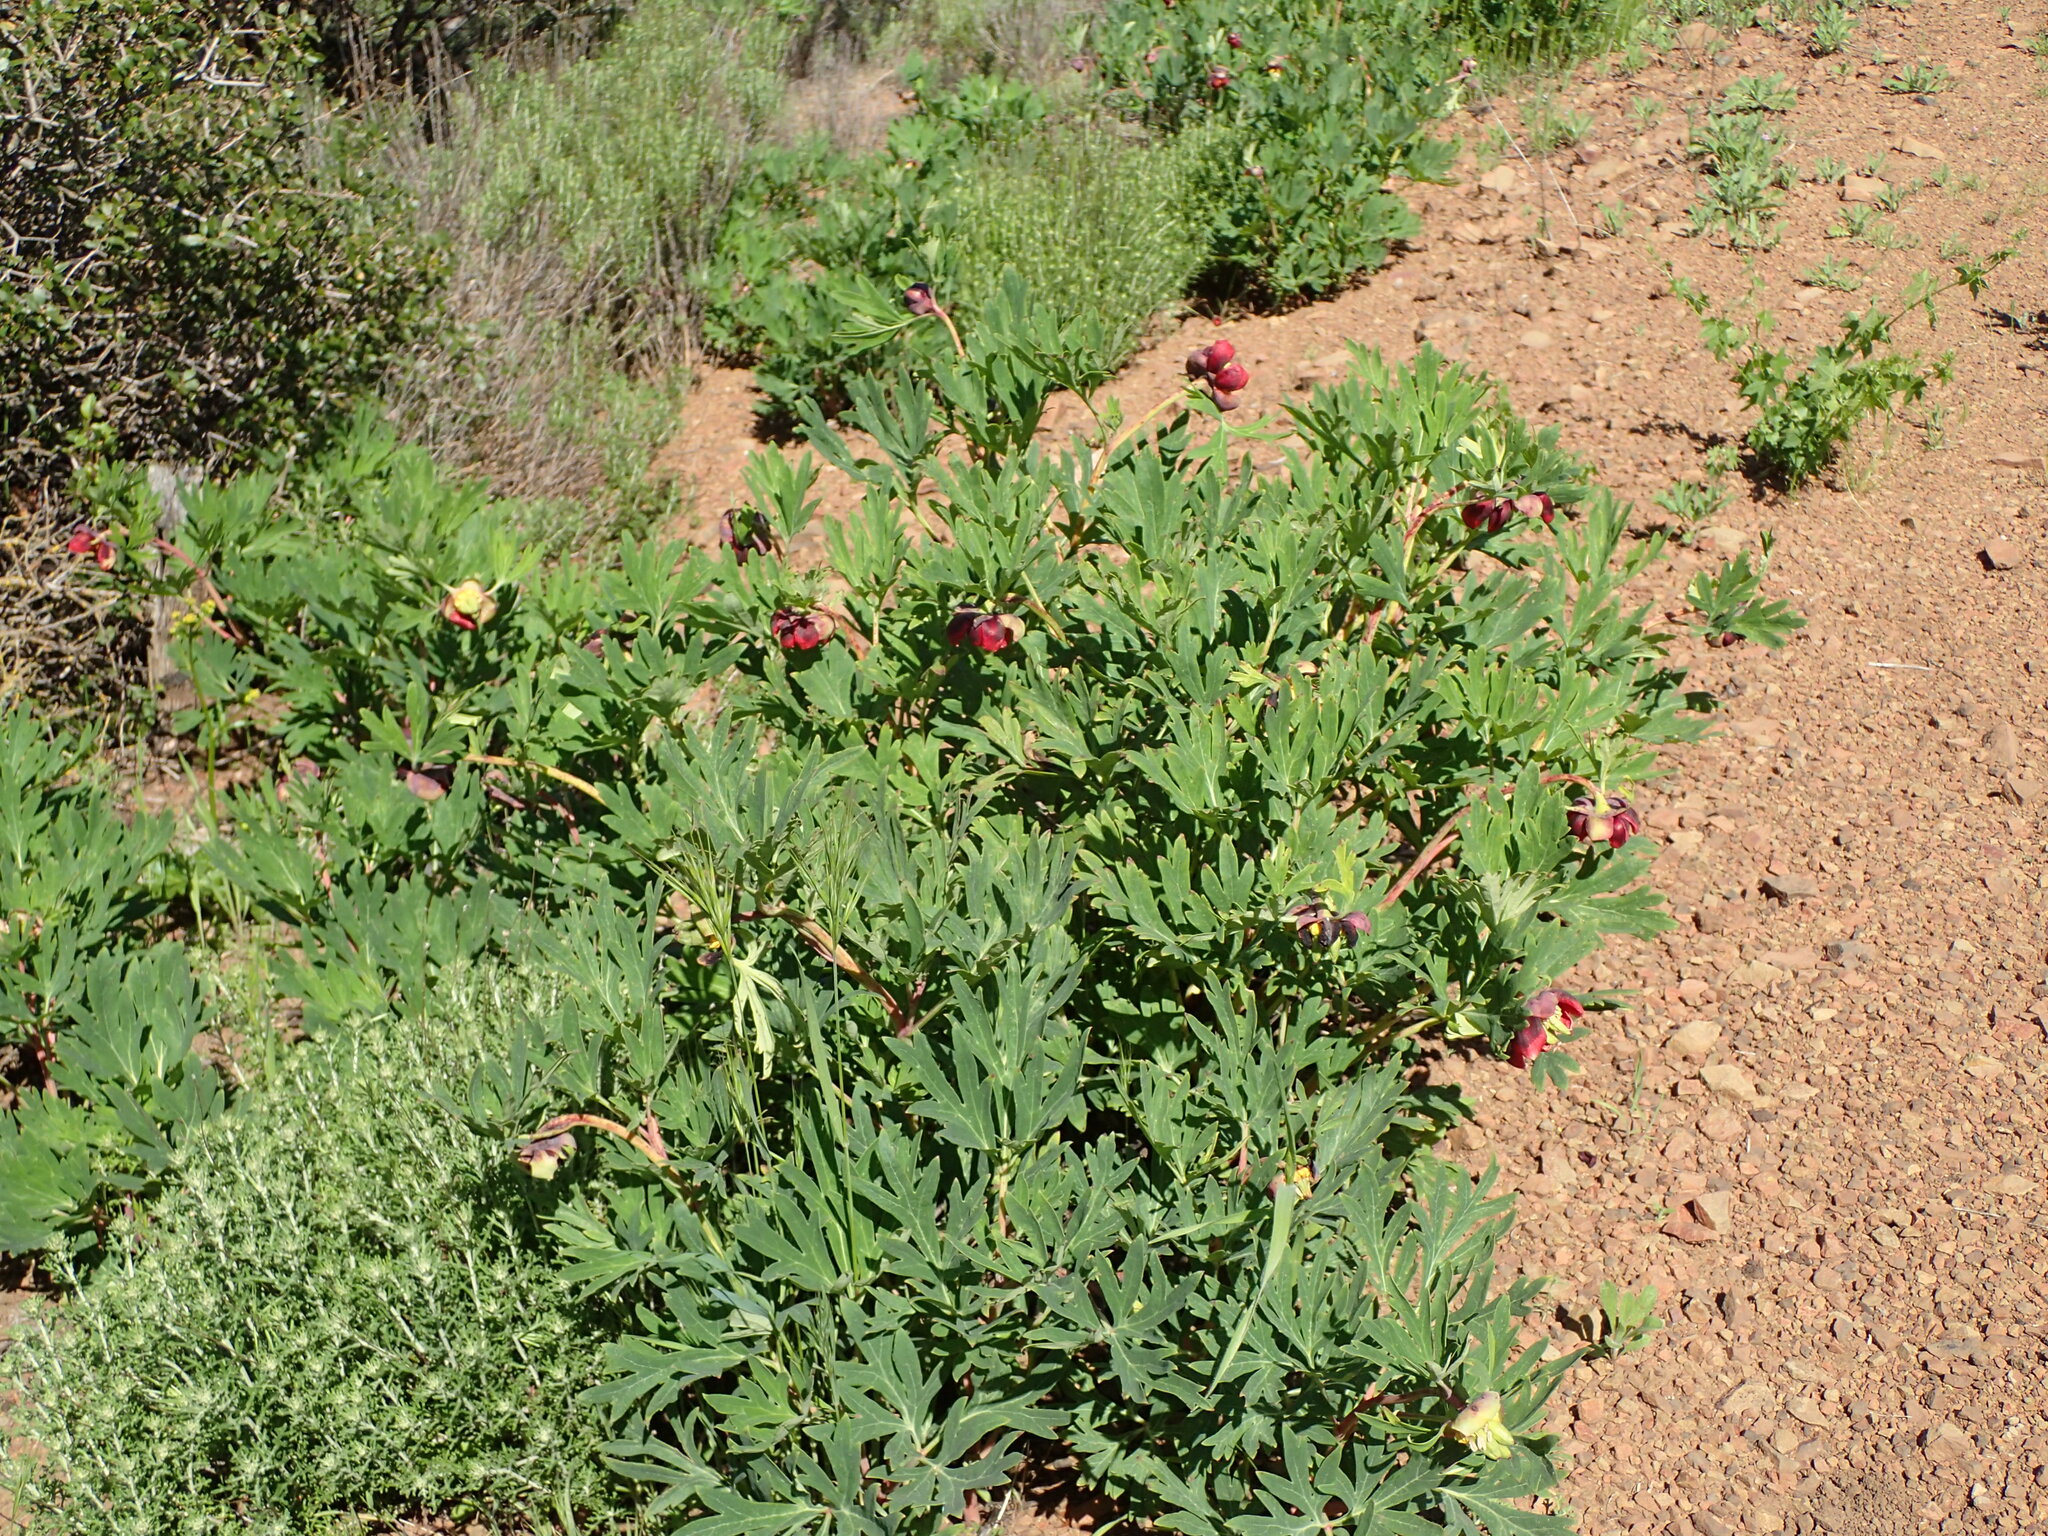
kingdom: Plantae
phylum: Tracheophyta
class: Magnoliopsida
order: Saxifragales
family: Paeoniaceae
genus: Paeonia
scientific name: Paeonia californica
